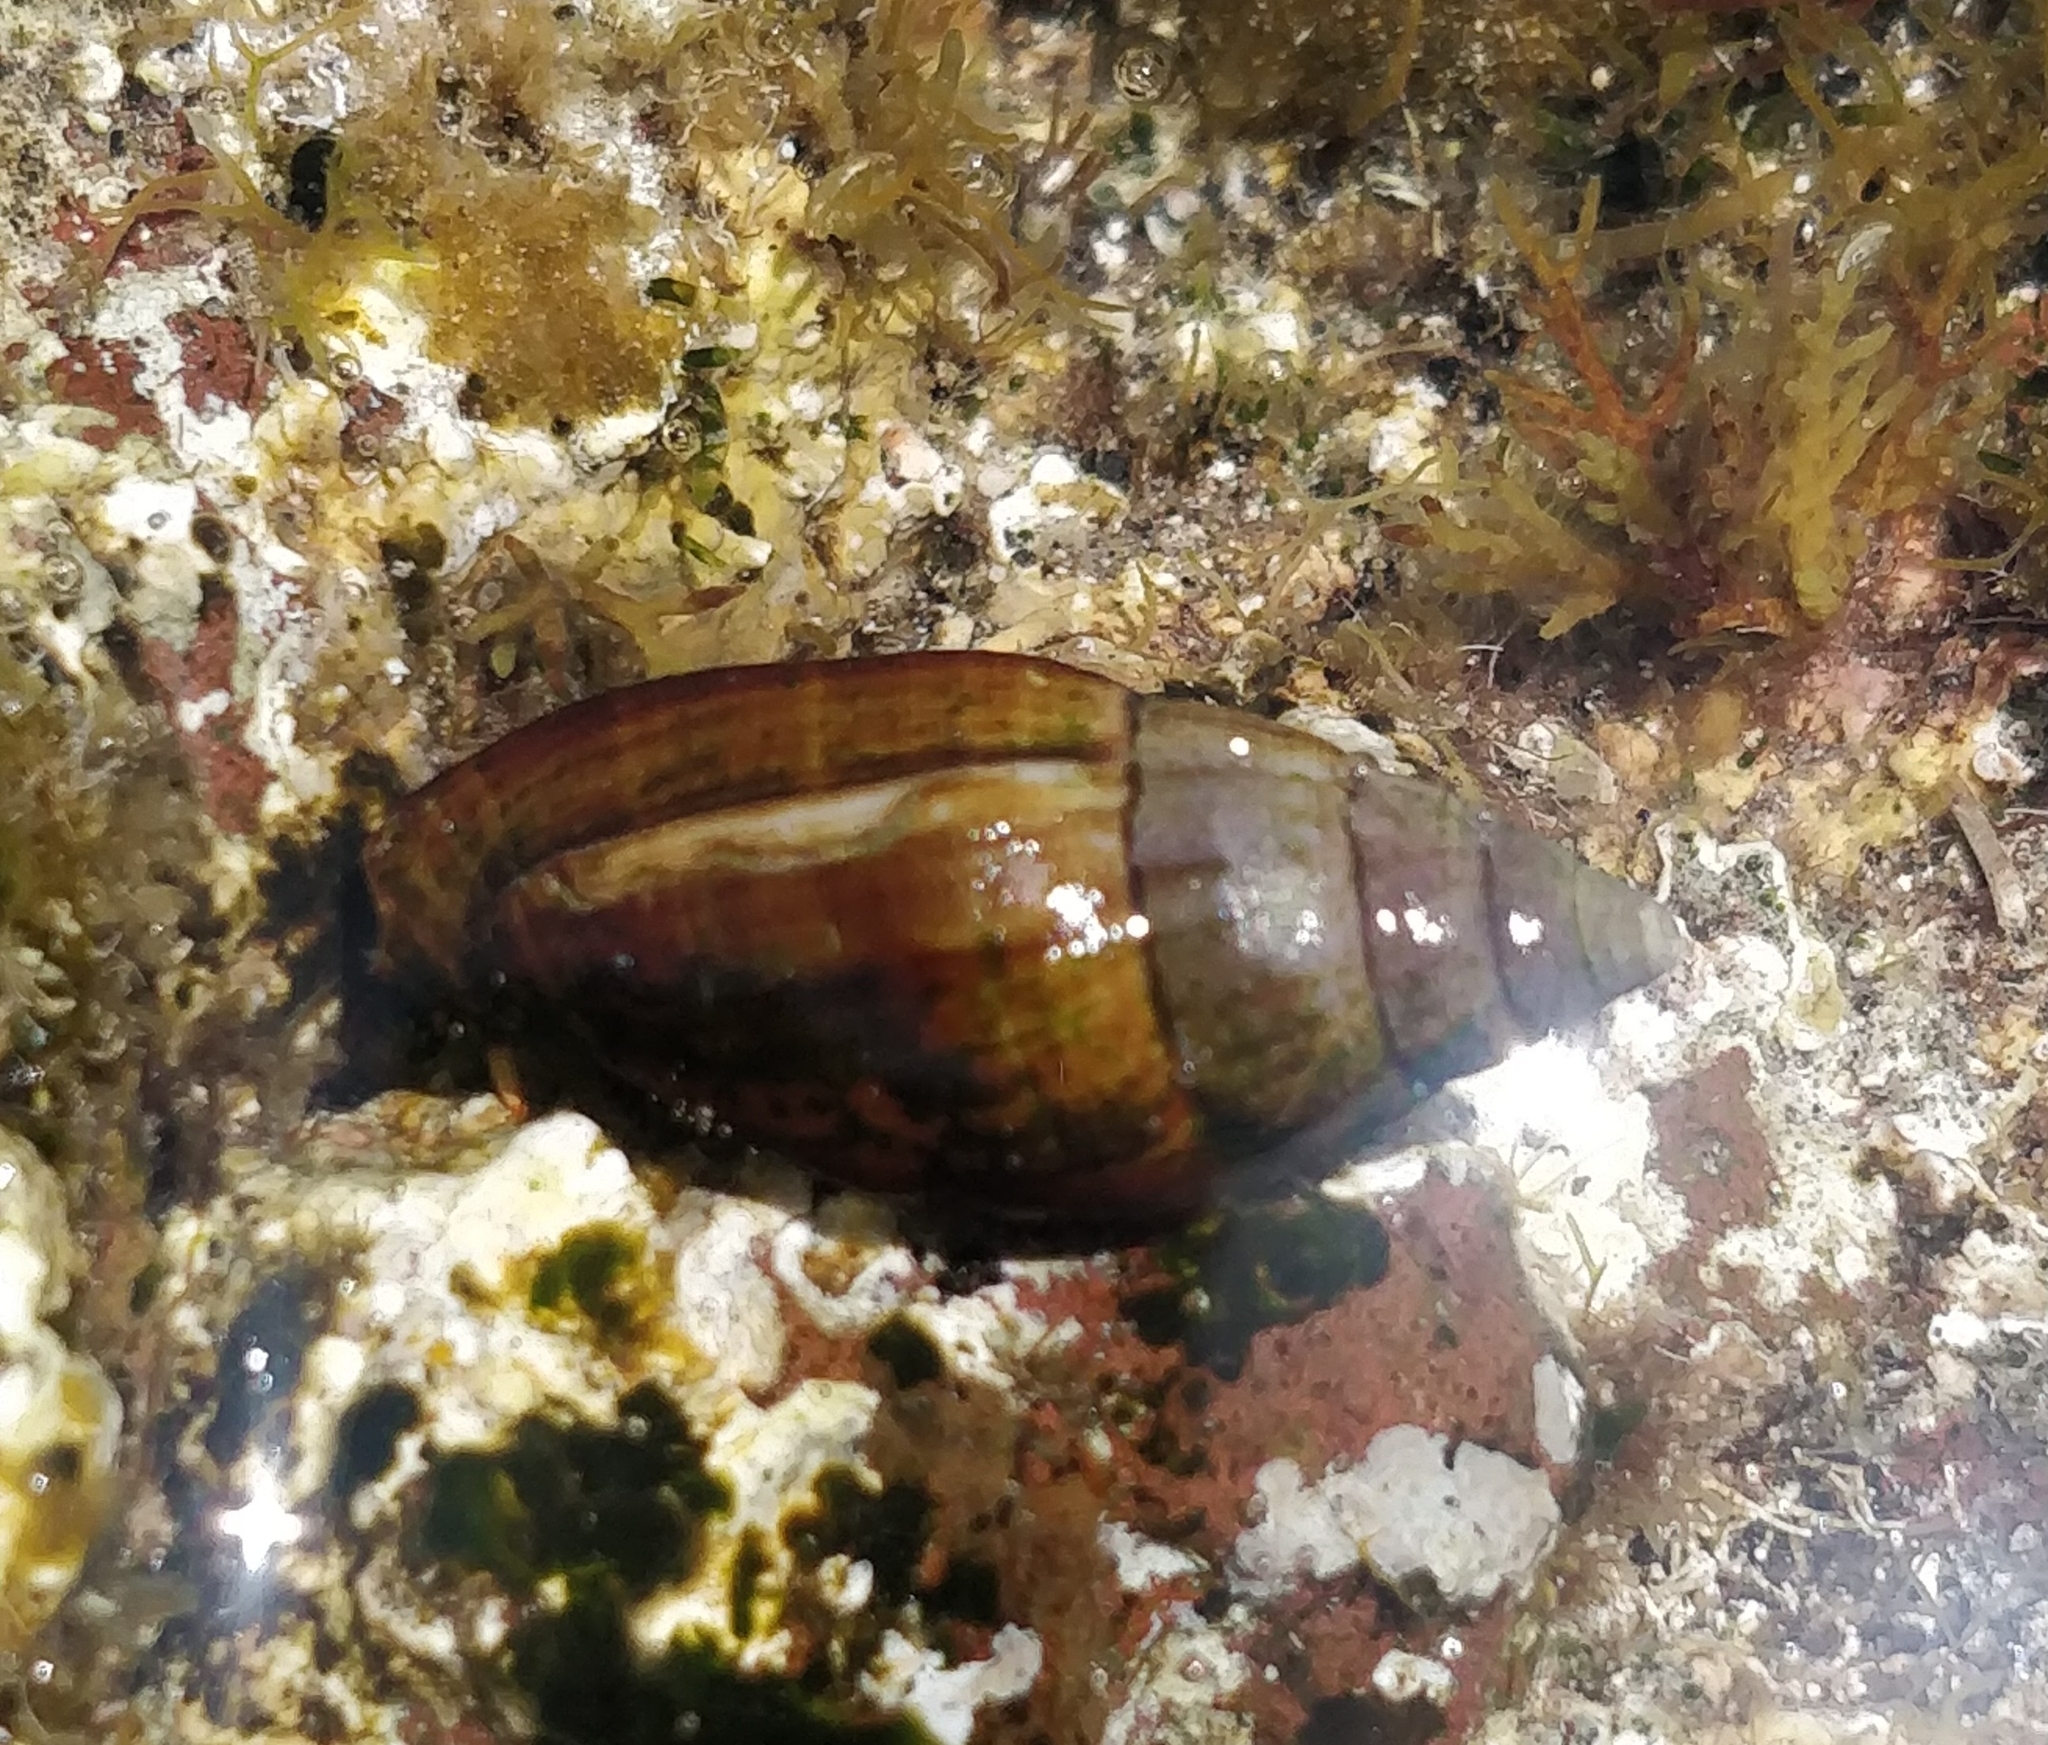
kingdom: Animalia
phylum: Mollusca
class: Gastropoda
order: Neogastropoda
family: Mitridae
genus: Isara
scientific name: Isara cornea
